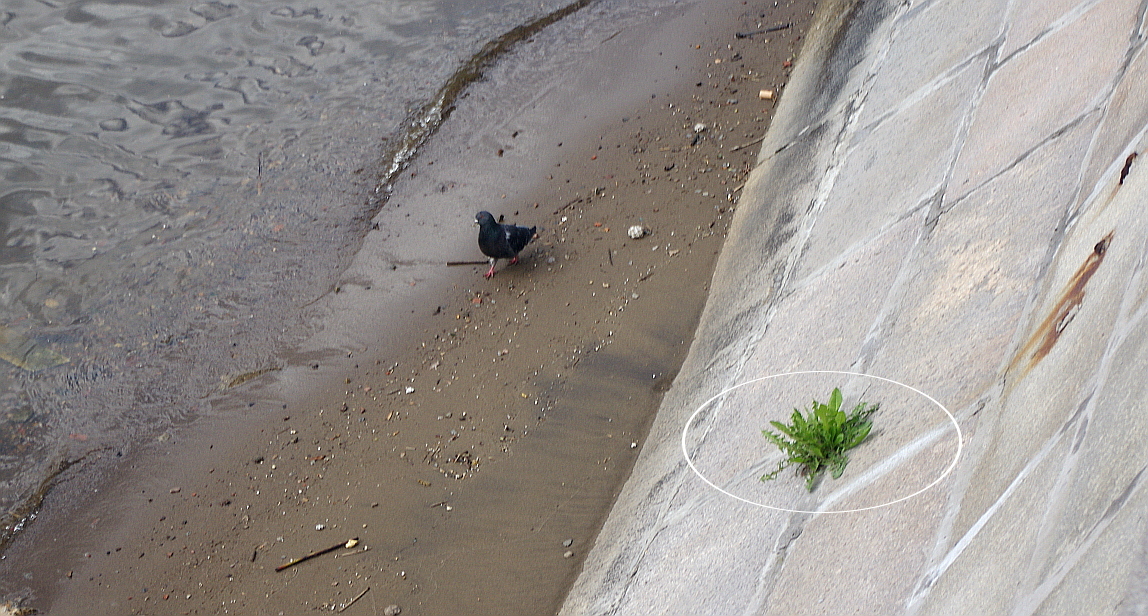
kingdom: Plantae
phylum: Tracheophyta
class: Magnoliopsida
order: Asterales
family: Asteraceae
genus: Taraxacum
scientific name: Taraxacum officinale
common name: Common dandelion
